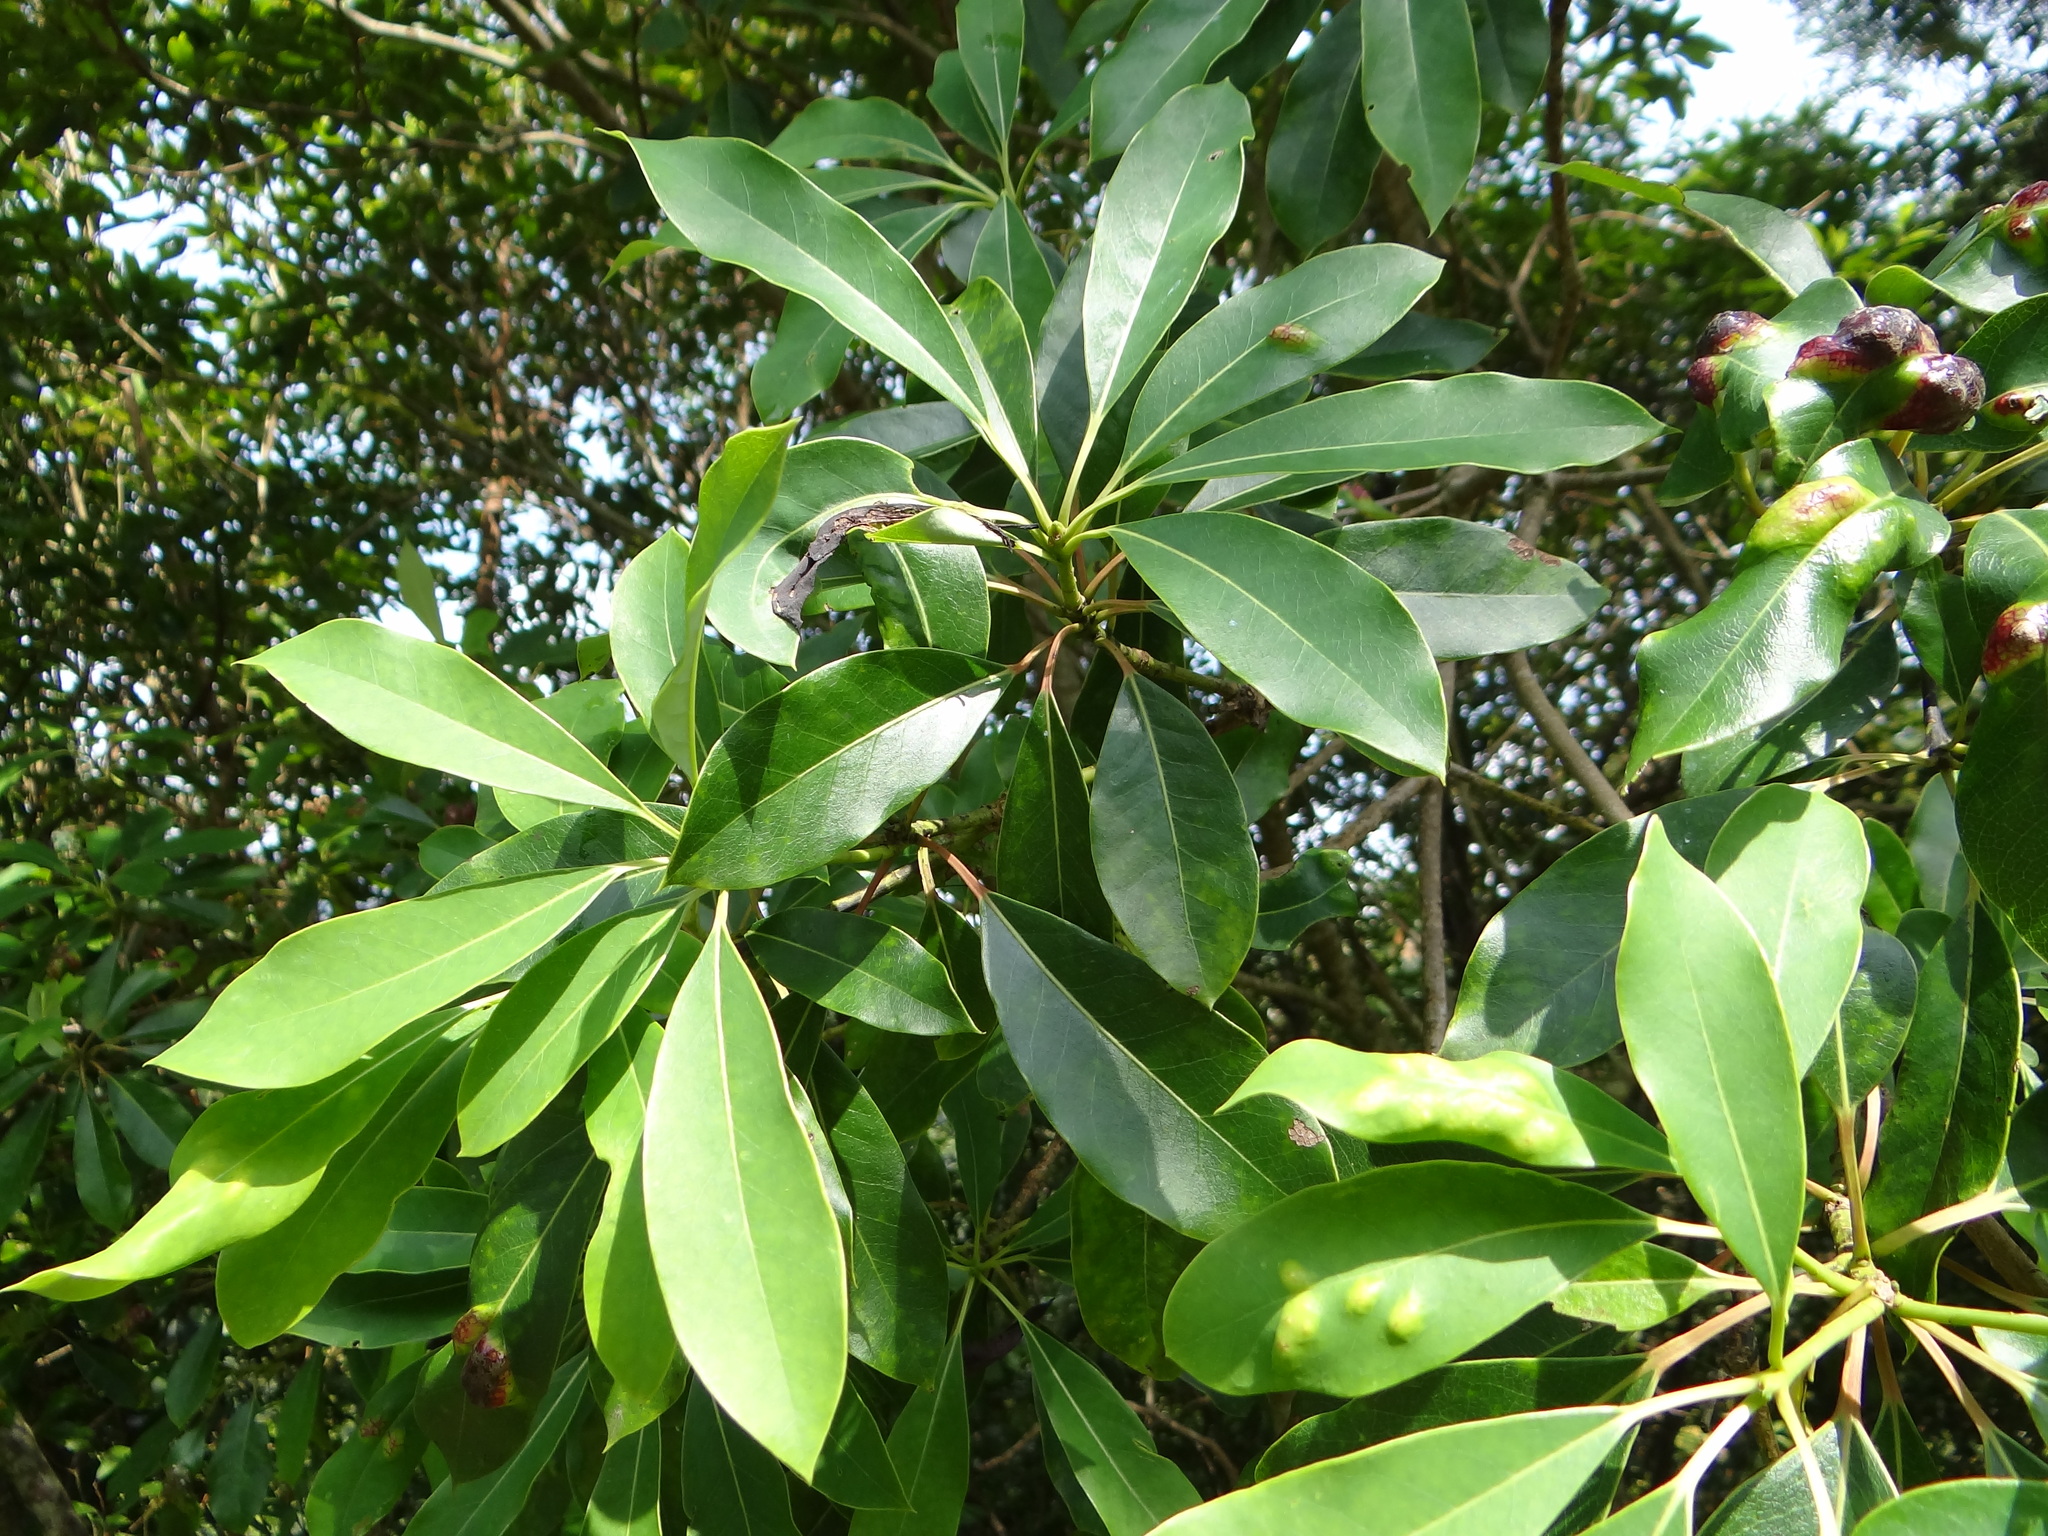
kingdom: Plantae
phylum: Tracheophyta
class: Magnoliopsida
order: Saxifragales
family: Daphniphyllaceae
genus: Daphniphyllum
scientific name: Daphniphyllum pentandrum
